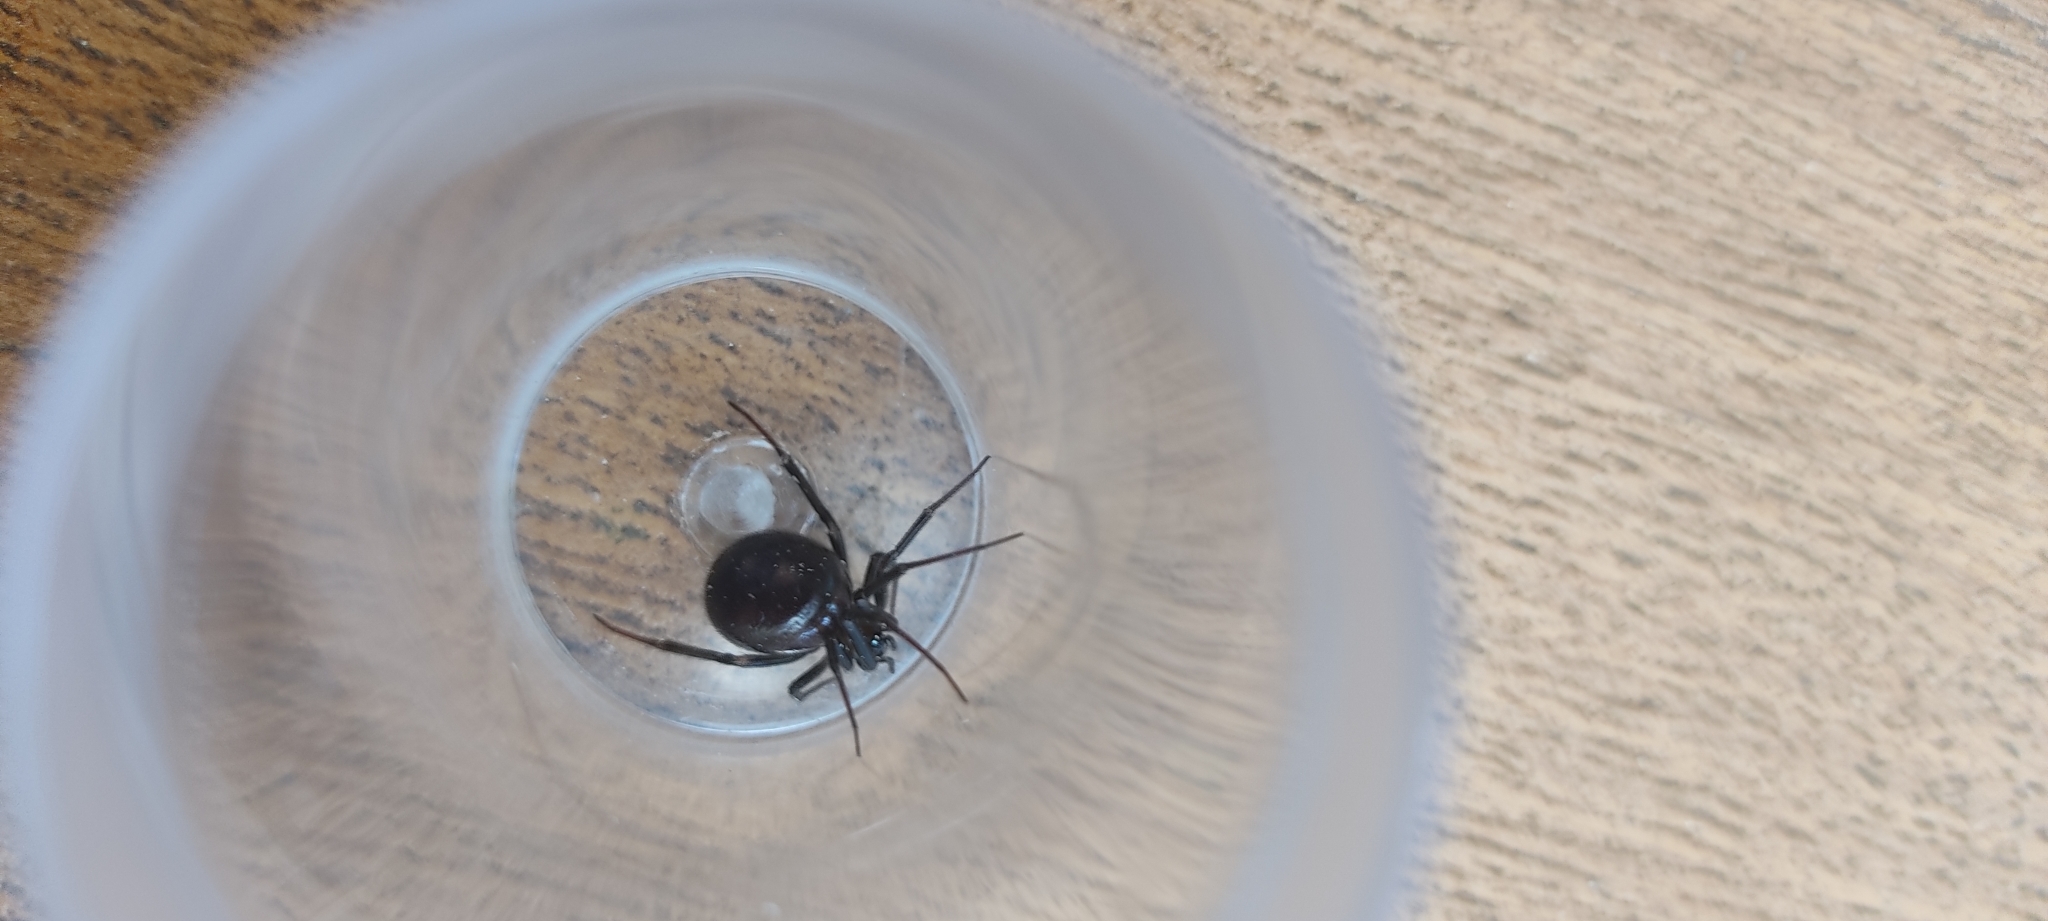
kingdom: Animalia
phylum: Arthropoda
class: Arachnida
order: Araneae
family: Theridiidae
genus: Steatoda
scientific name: Steatoda grossa
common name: False black widow
